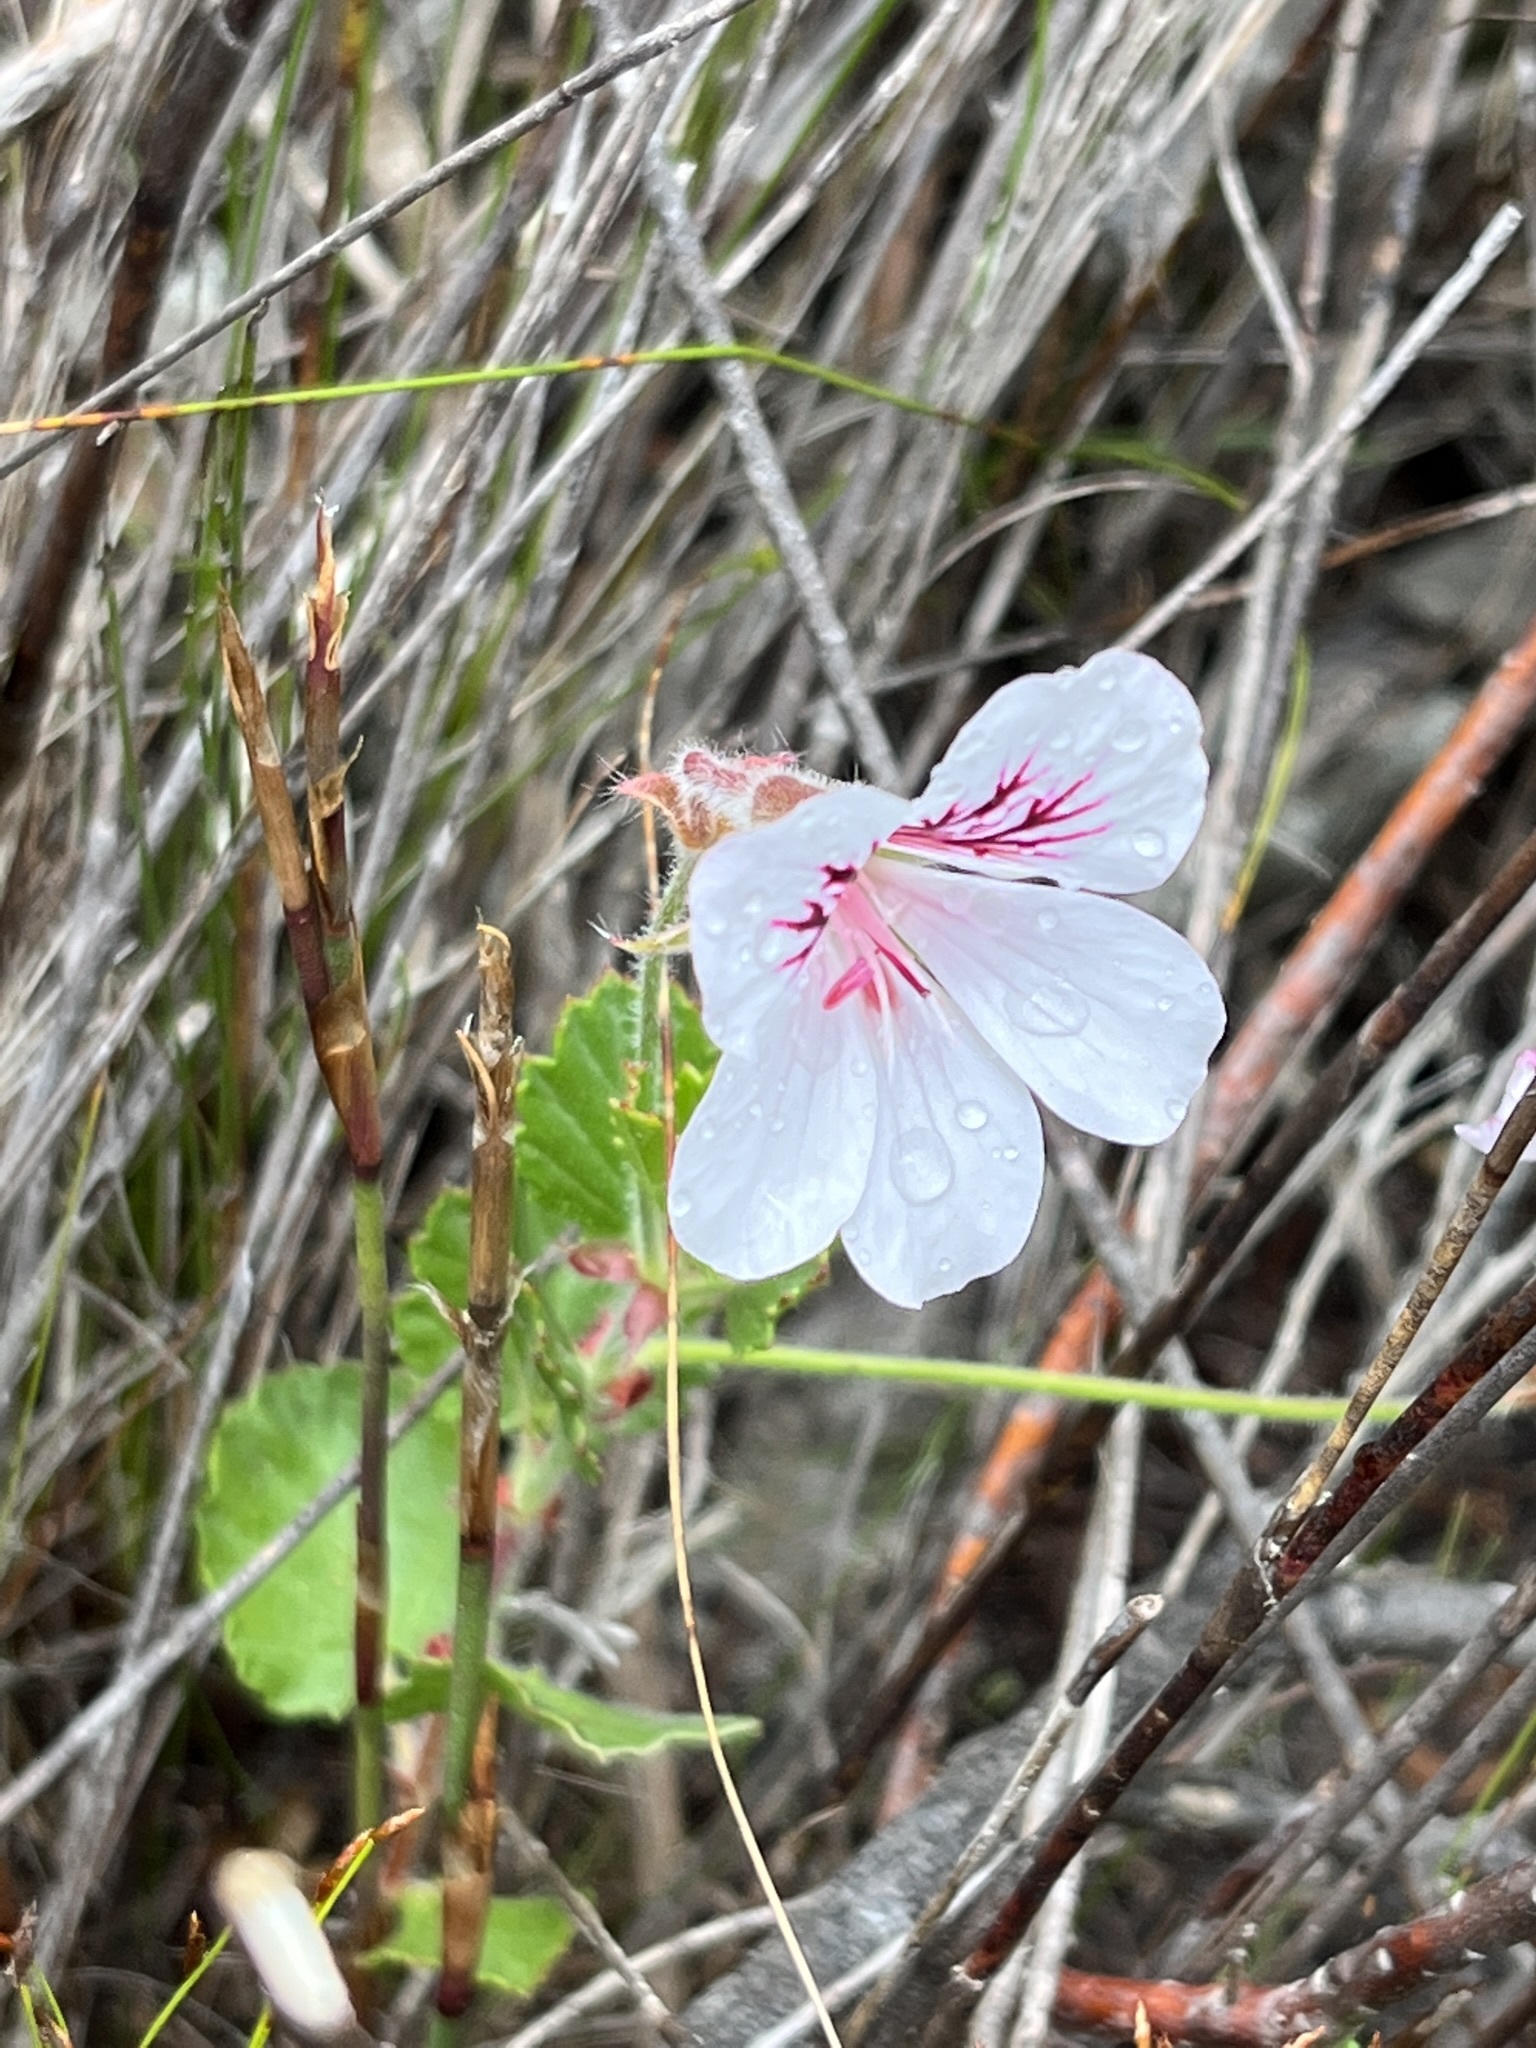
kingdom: Plantae
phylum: Tracheophyta
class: Magnoliopsida
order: Geraniales
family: Geraniaceae
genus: Pelargonium
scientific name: Pelargonium betulinum
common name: Birch-leaf pelargonium
